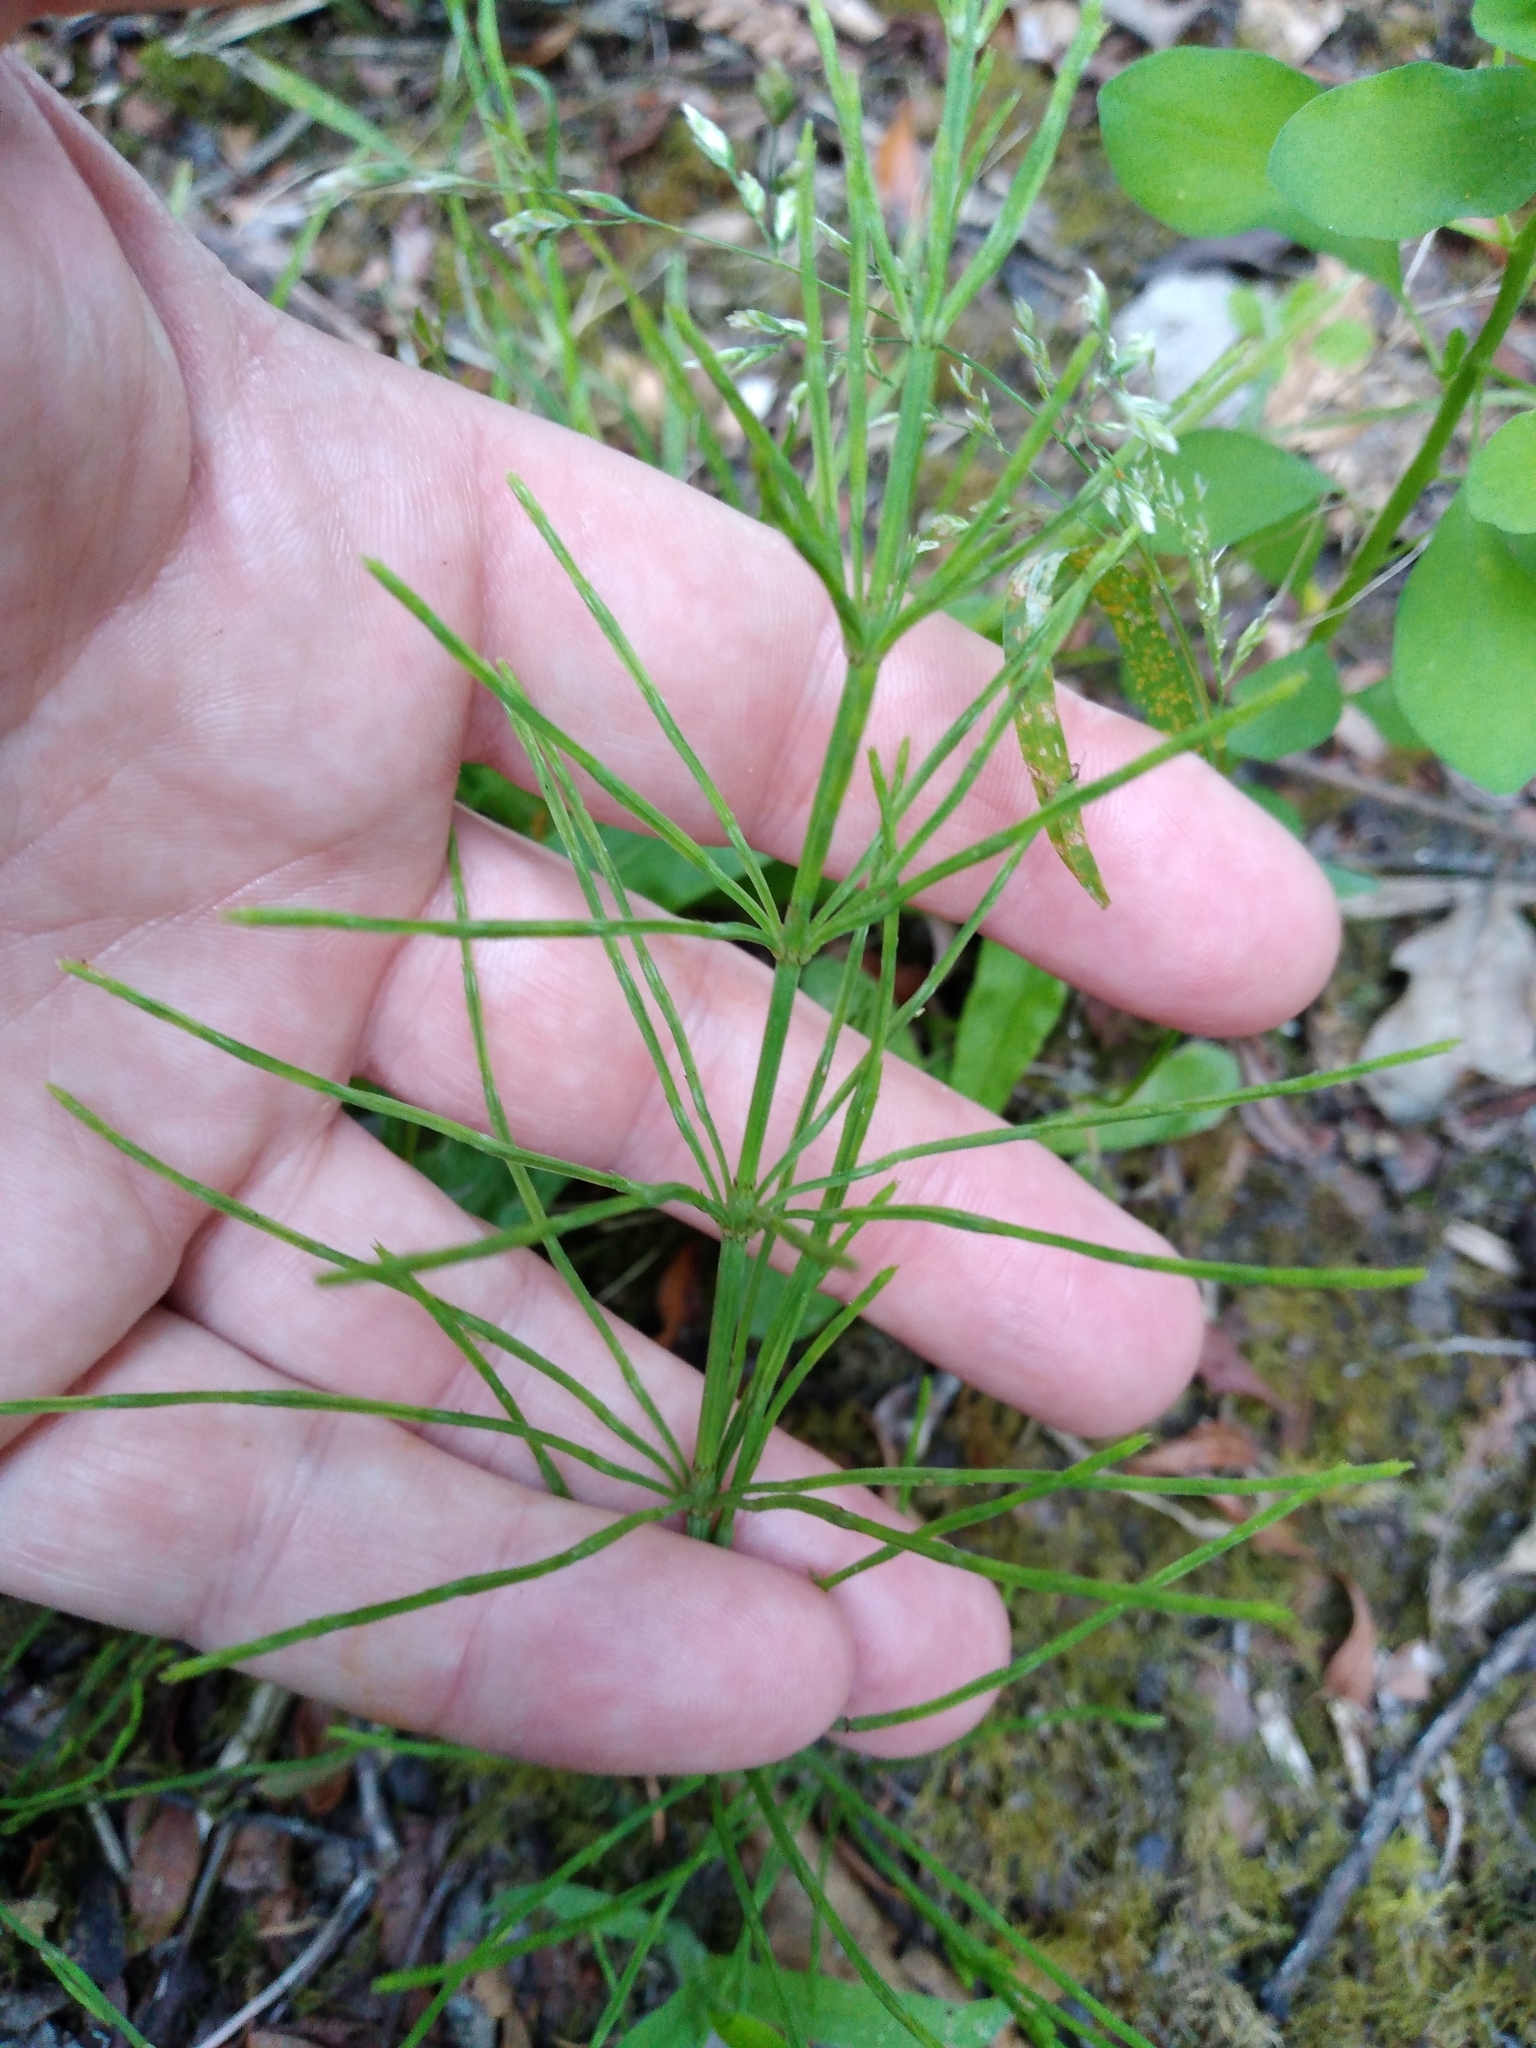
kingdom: Plantae
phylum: Tracheophyta
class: Polypodiopsida
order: Equisetales
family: Equisetaceae
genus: Equisetum
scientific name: Equisetum arvense
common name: Field horsetail
